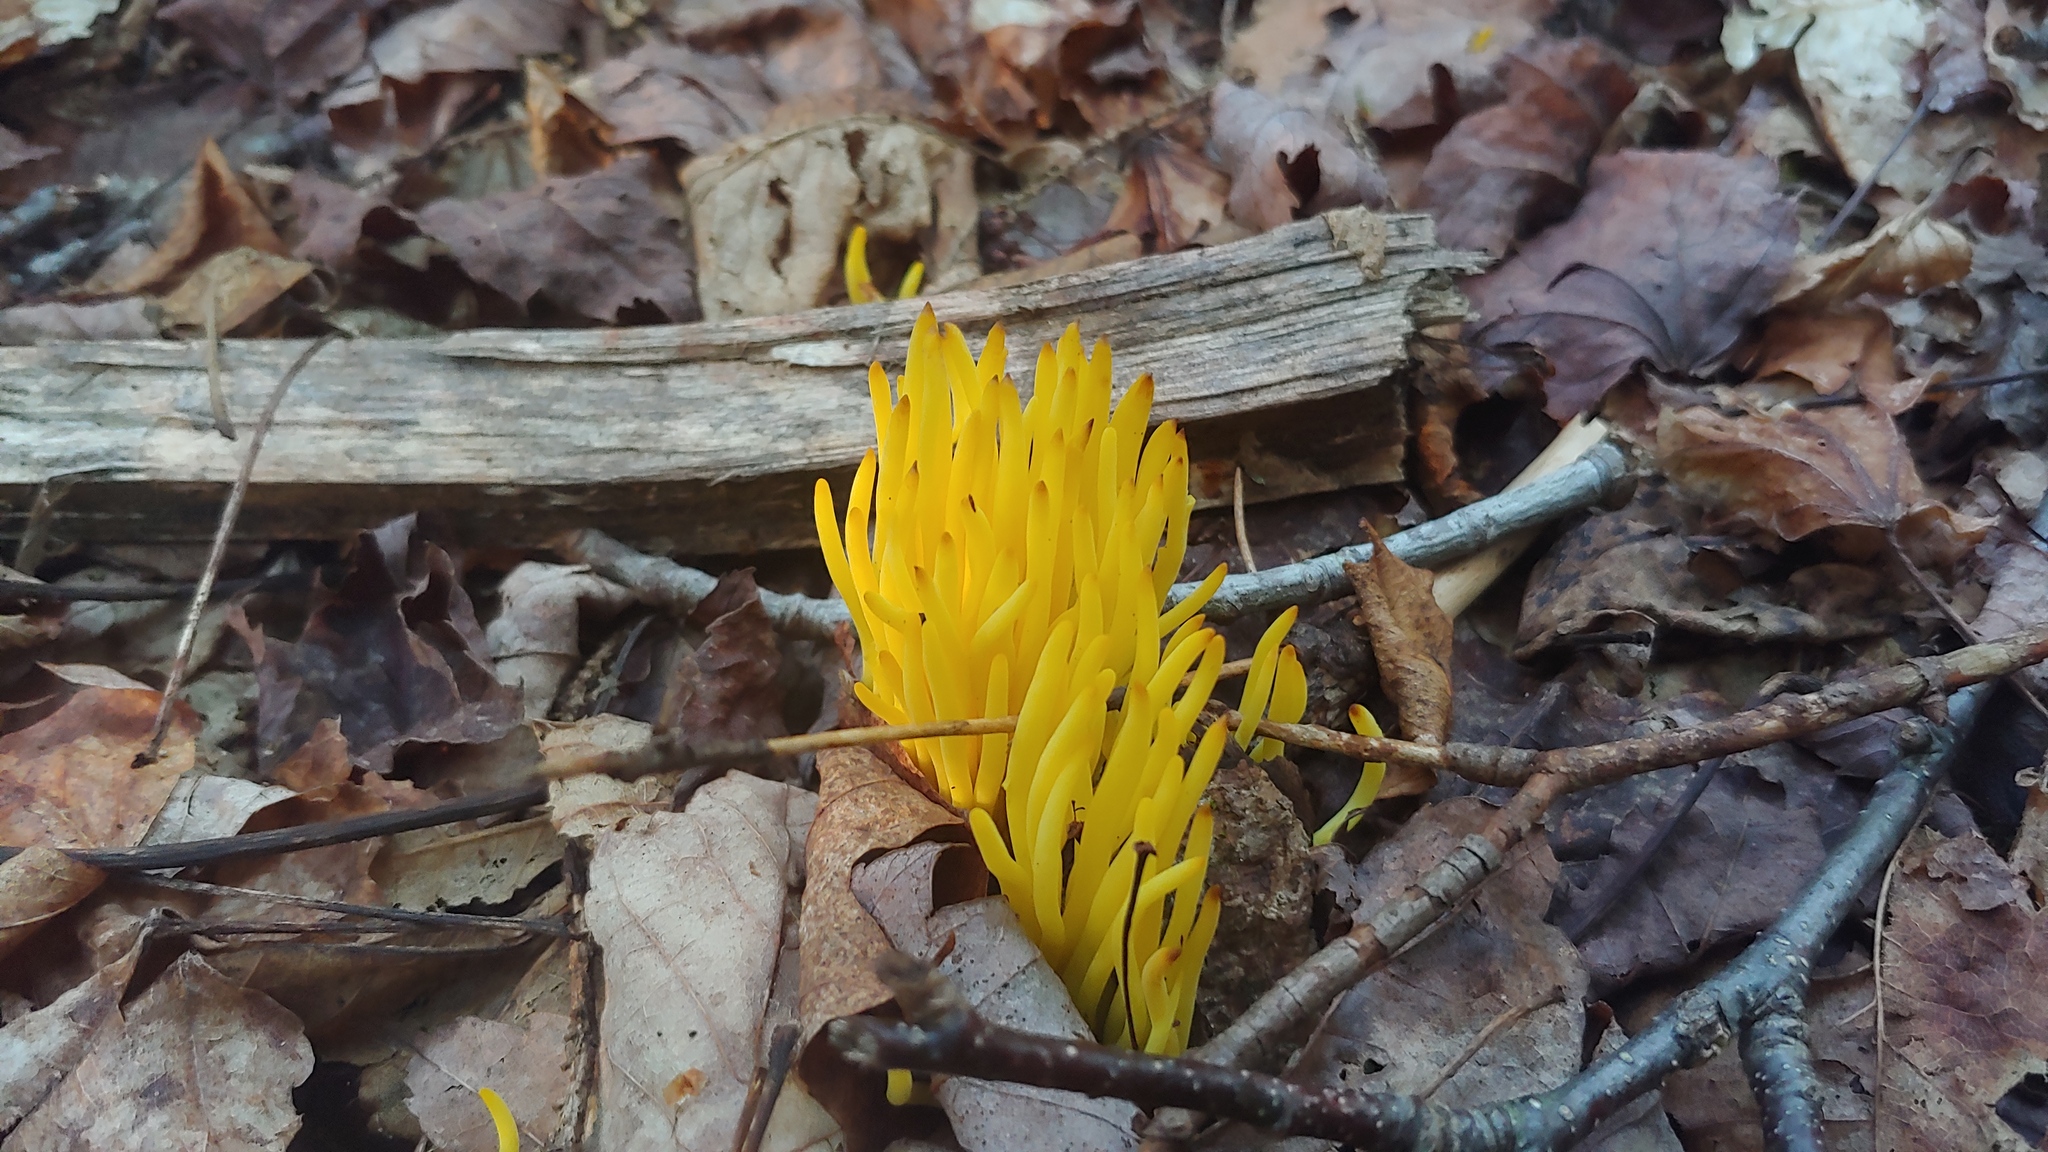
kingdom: Fungi
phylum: Basidiomycota
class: Agaricomycetes
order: Agaricales
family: Clavariaceae
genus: Clavulinopsis
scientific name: Clavulinopsis fusiformis
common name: Golden spindles
